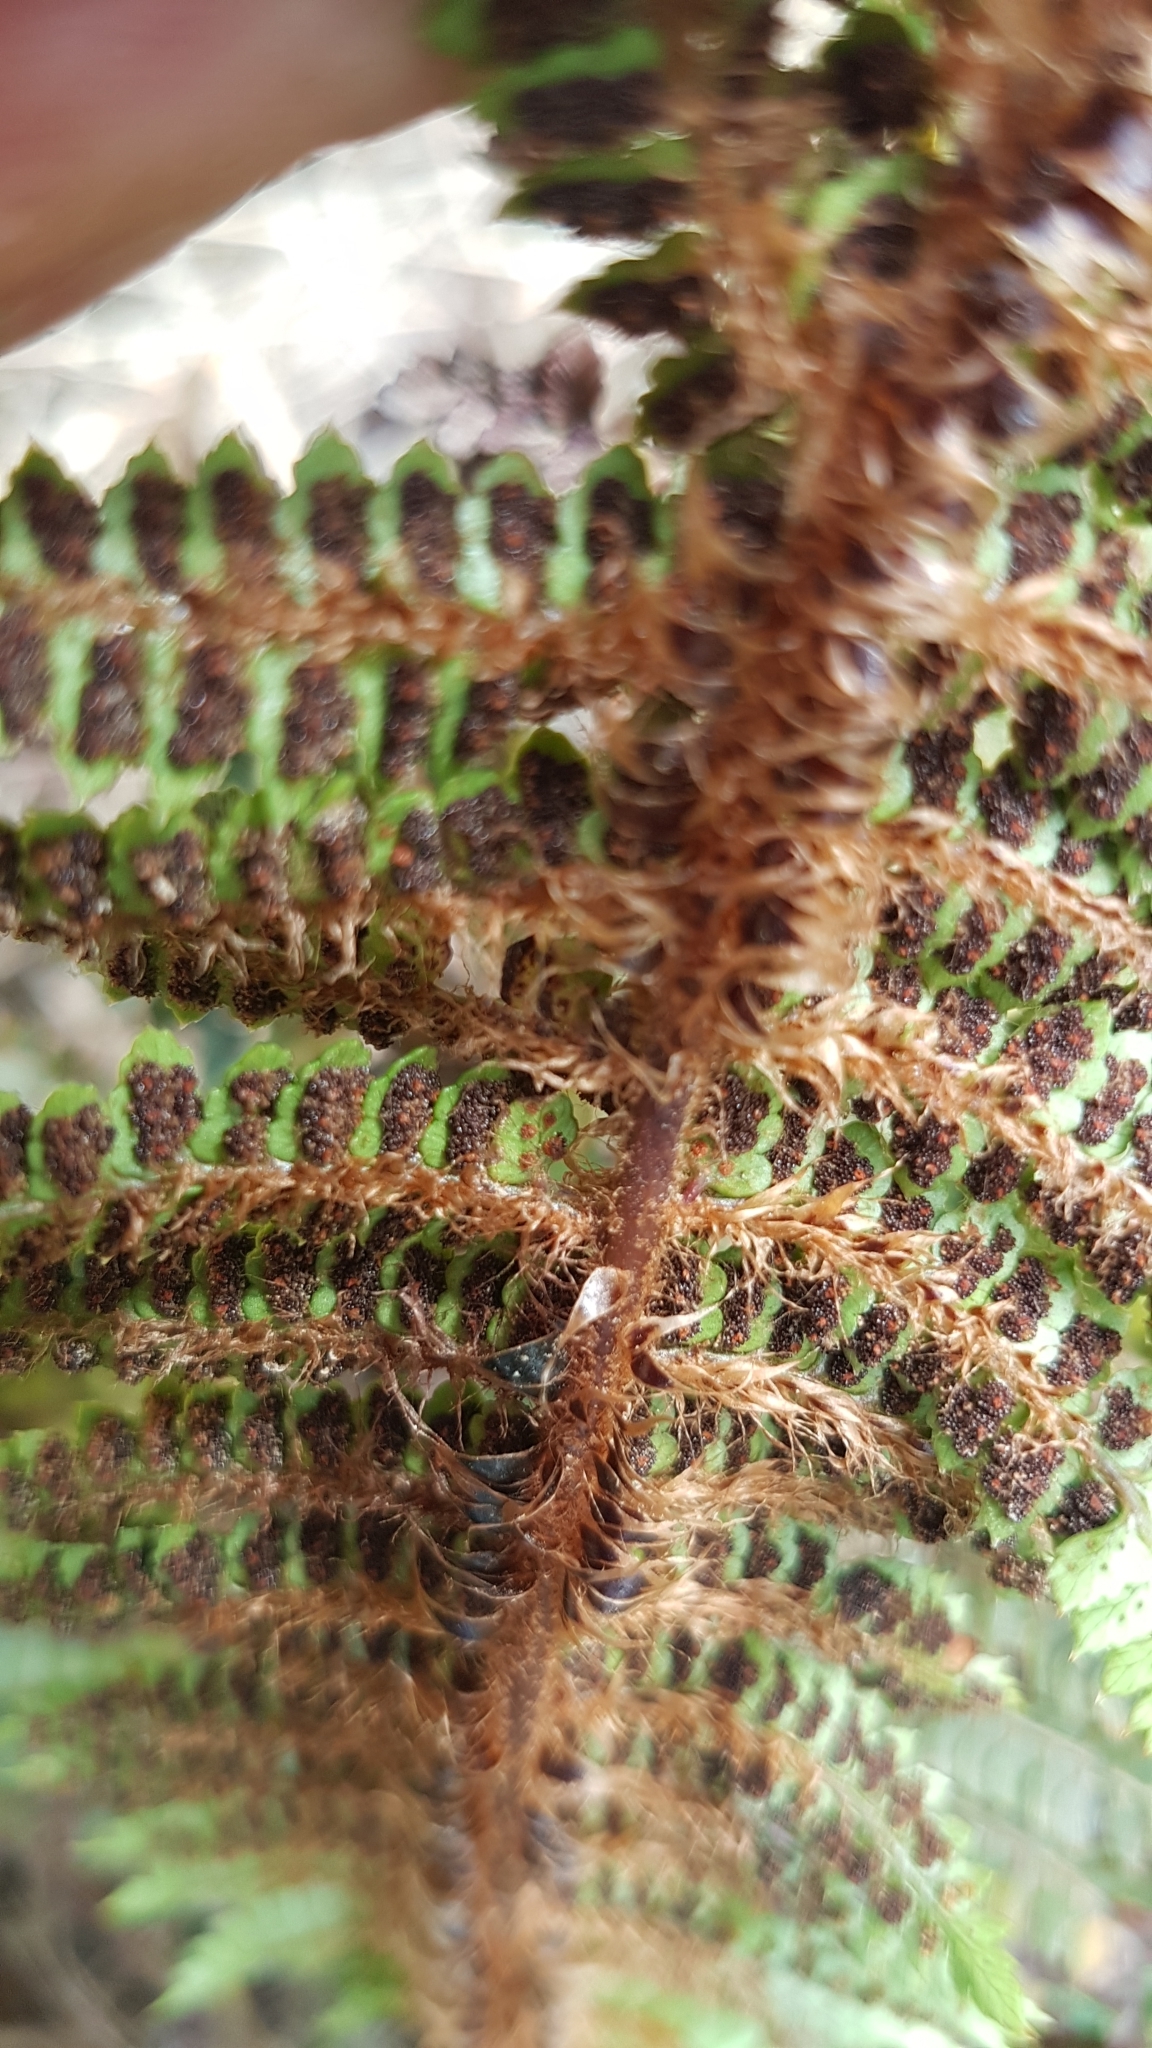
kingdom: Plantae
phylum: Tracheophyta
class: Polypodiopsida
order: Polypodiales
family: Dryopteridaceae
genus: Polystichum
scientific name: Polystichum vestitum
